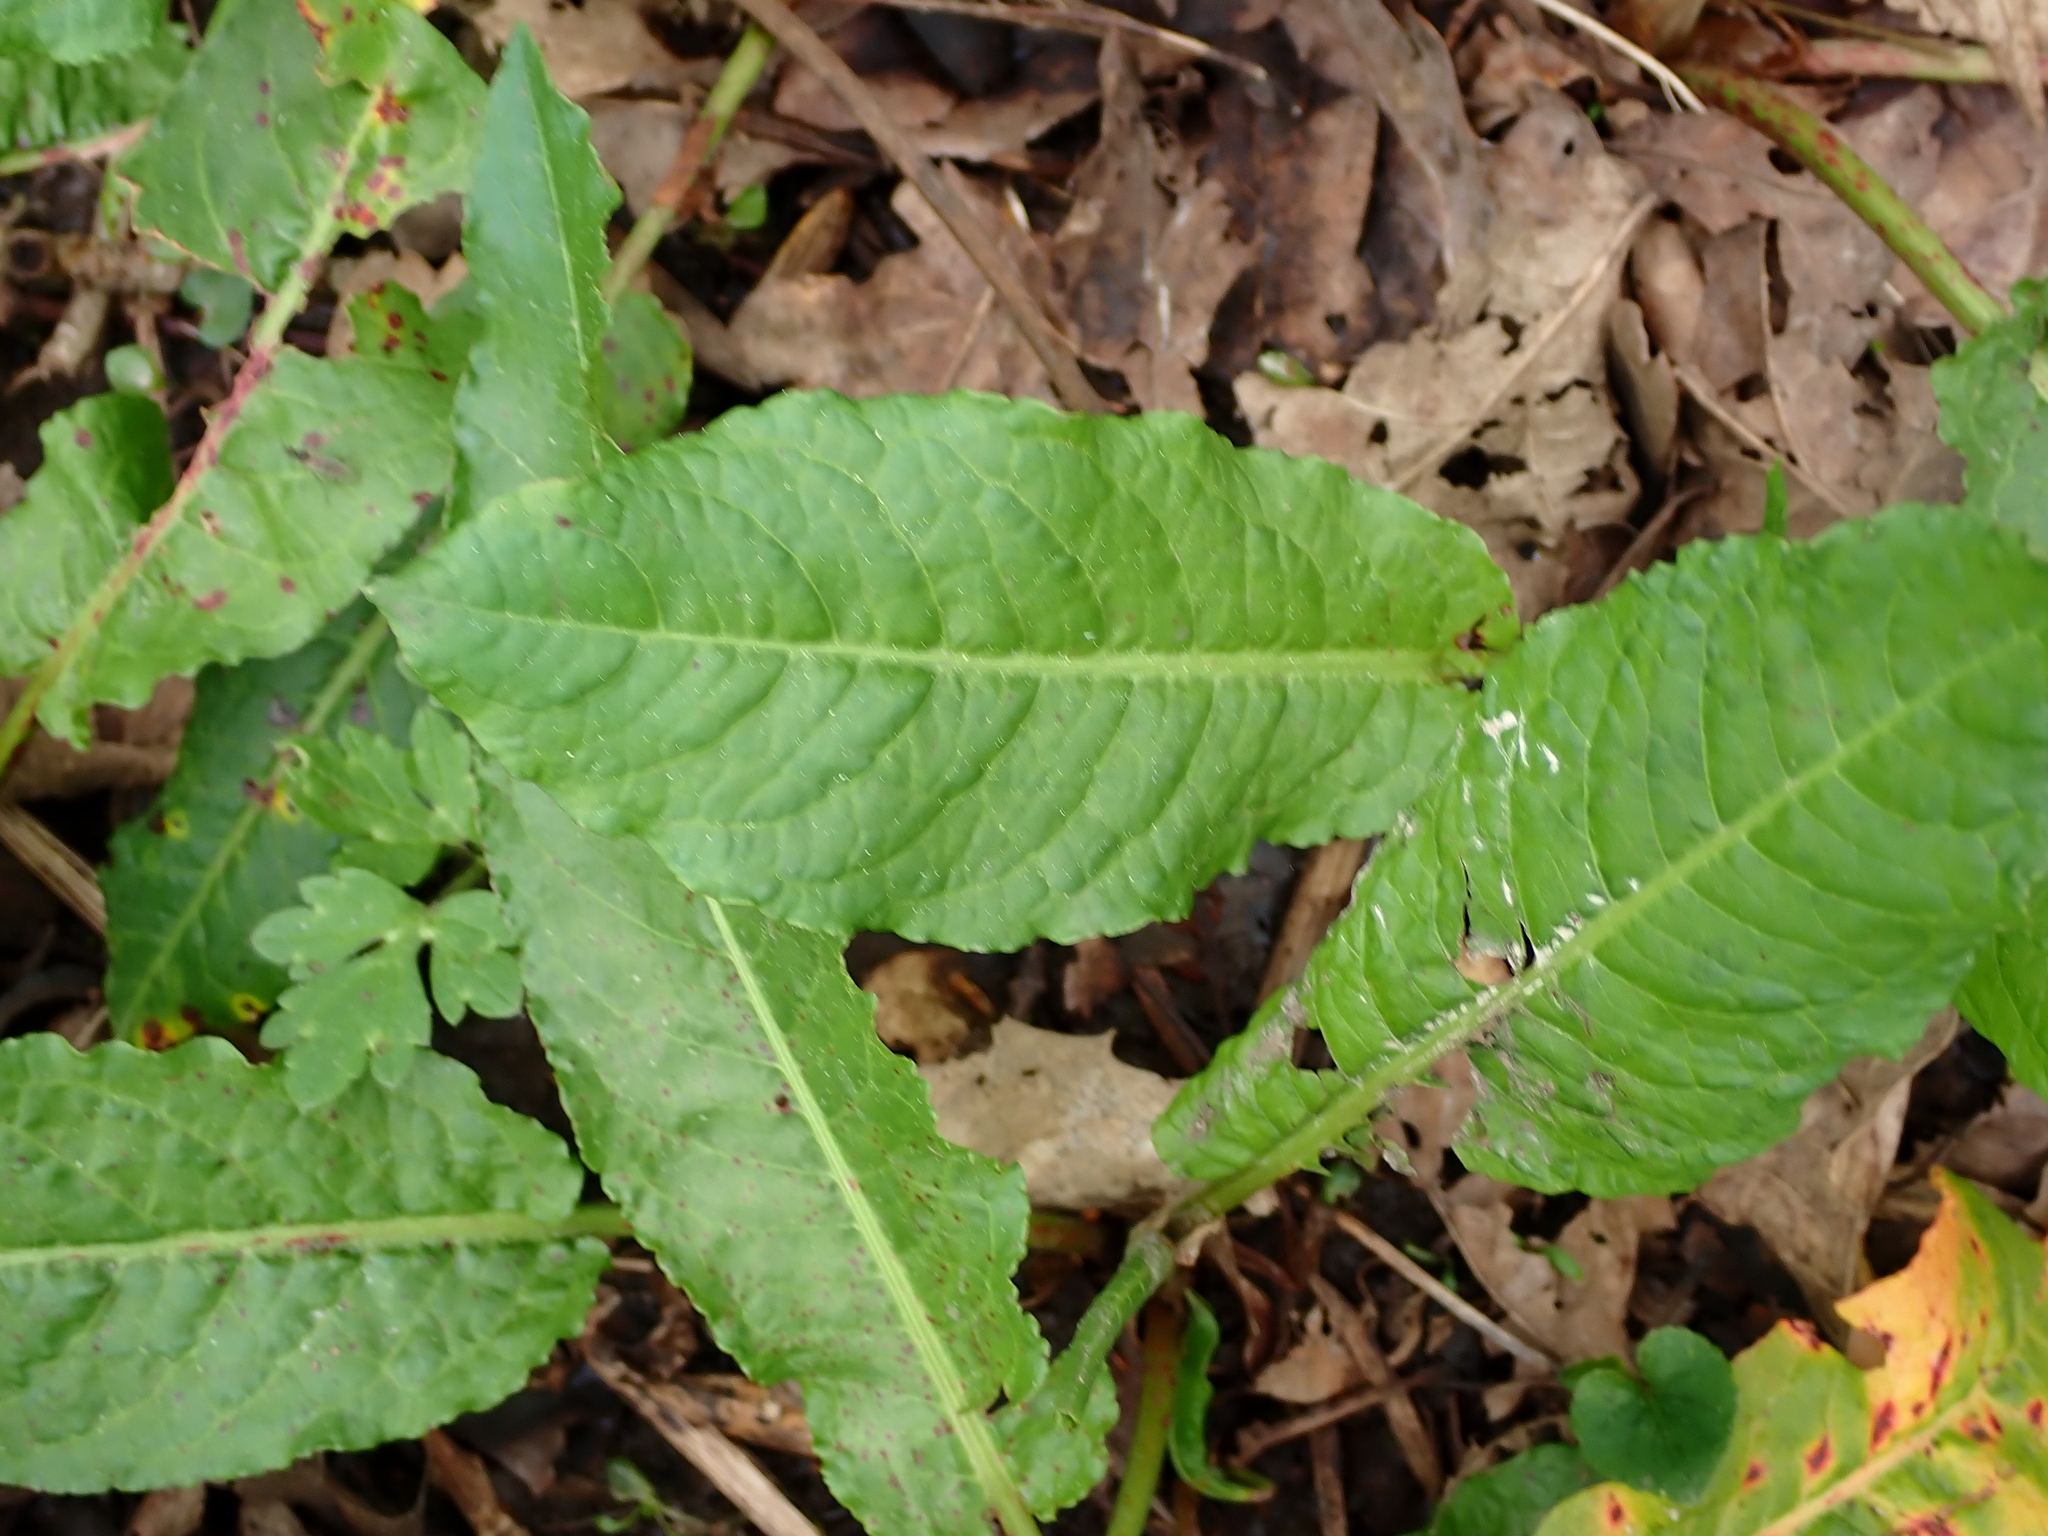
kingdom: Plantae
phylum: Tracheophyta
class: Magnoliopsida
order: Caryophyllales
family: Polygonaceae
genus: Rumex
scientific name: Rumex sanguineus
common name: Wood dock
